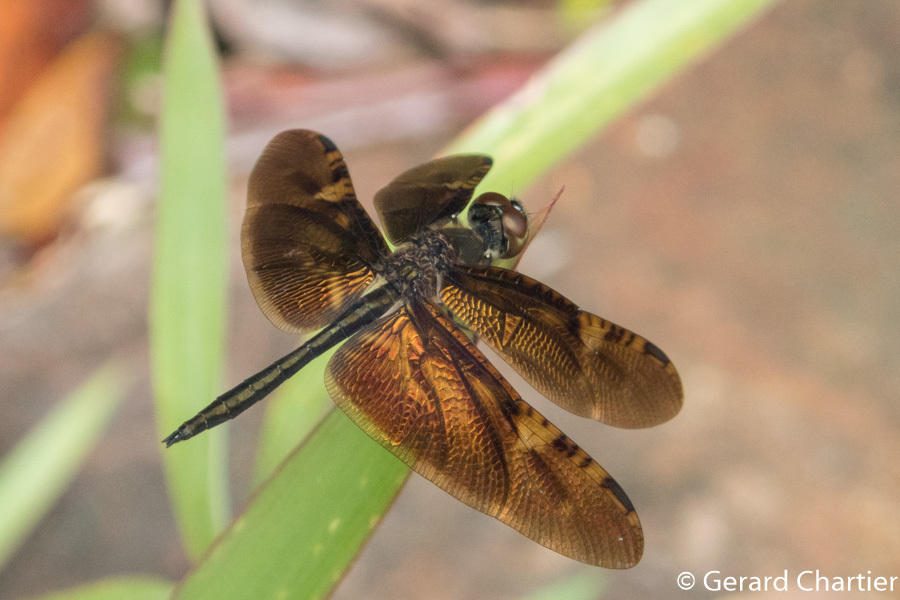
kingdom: Animalia
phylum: Arthropoda
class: Insecta
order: Odonata
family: Libellulidae
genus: Rhyothemis
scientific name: Rhyothemis obsolescens
